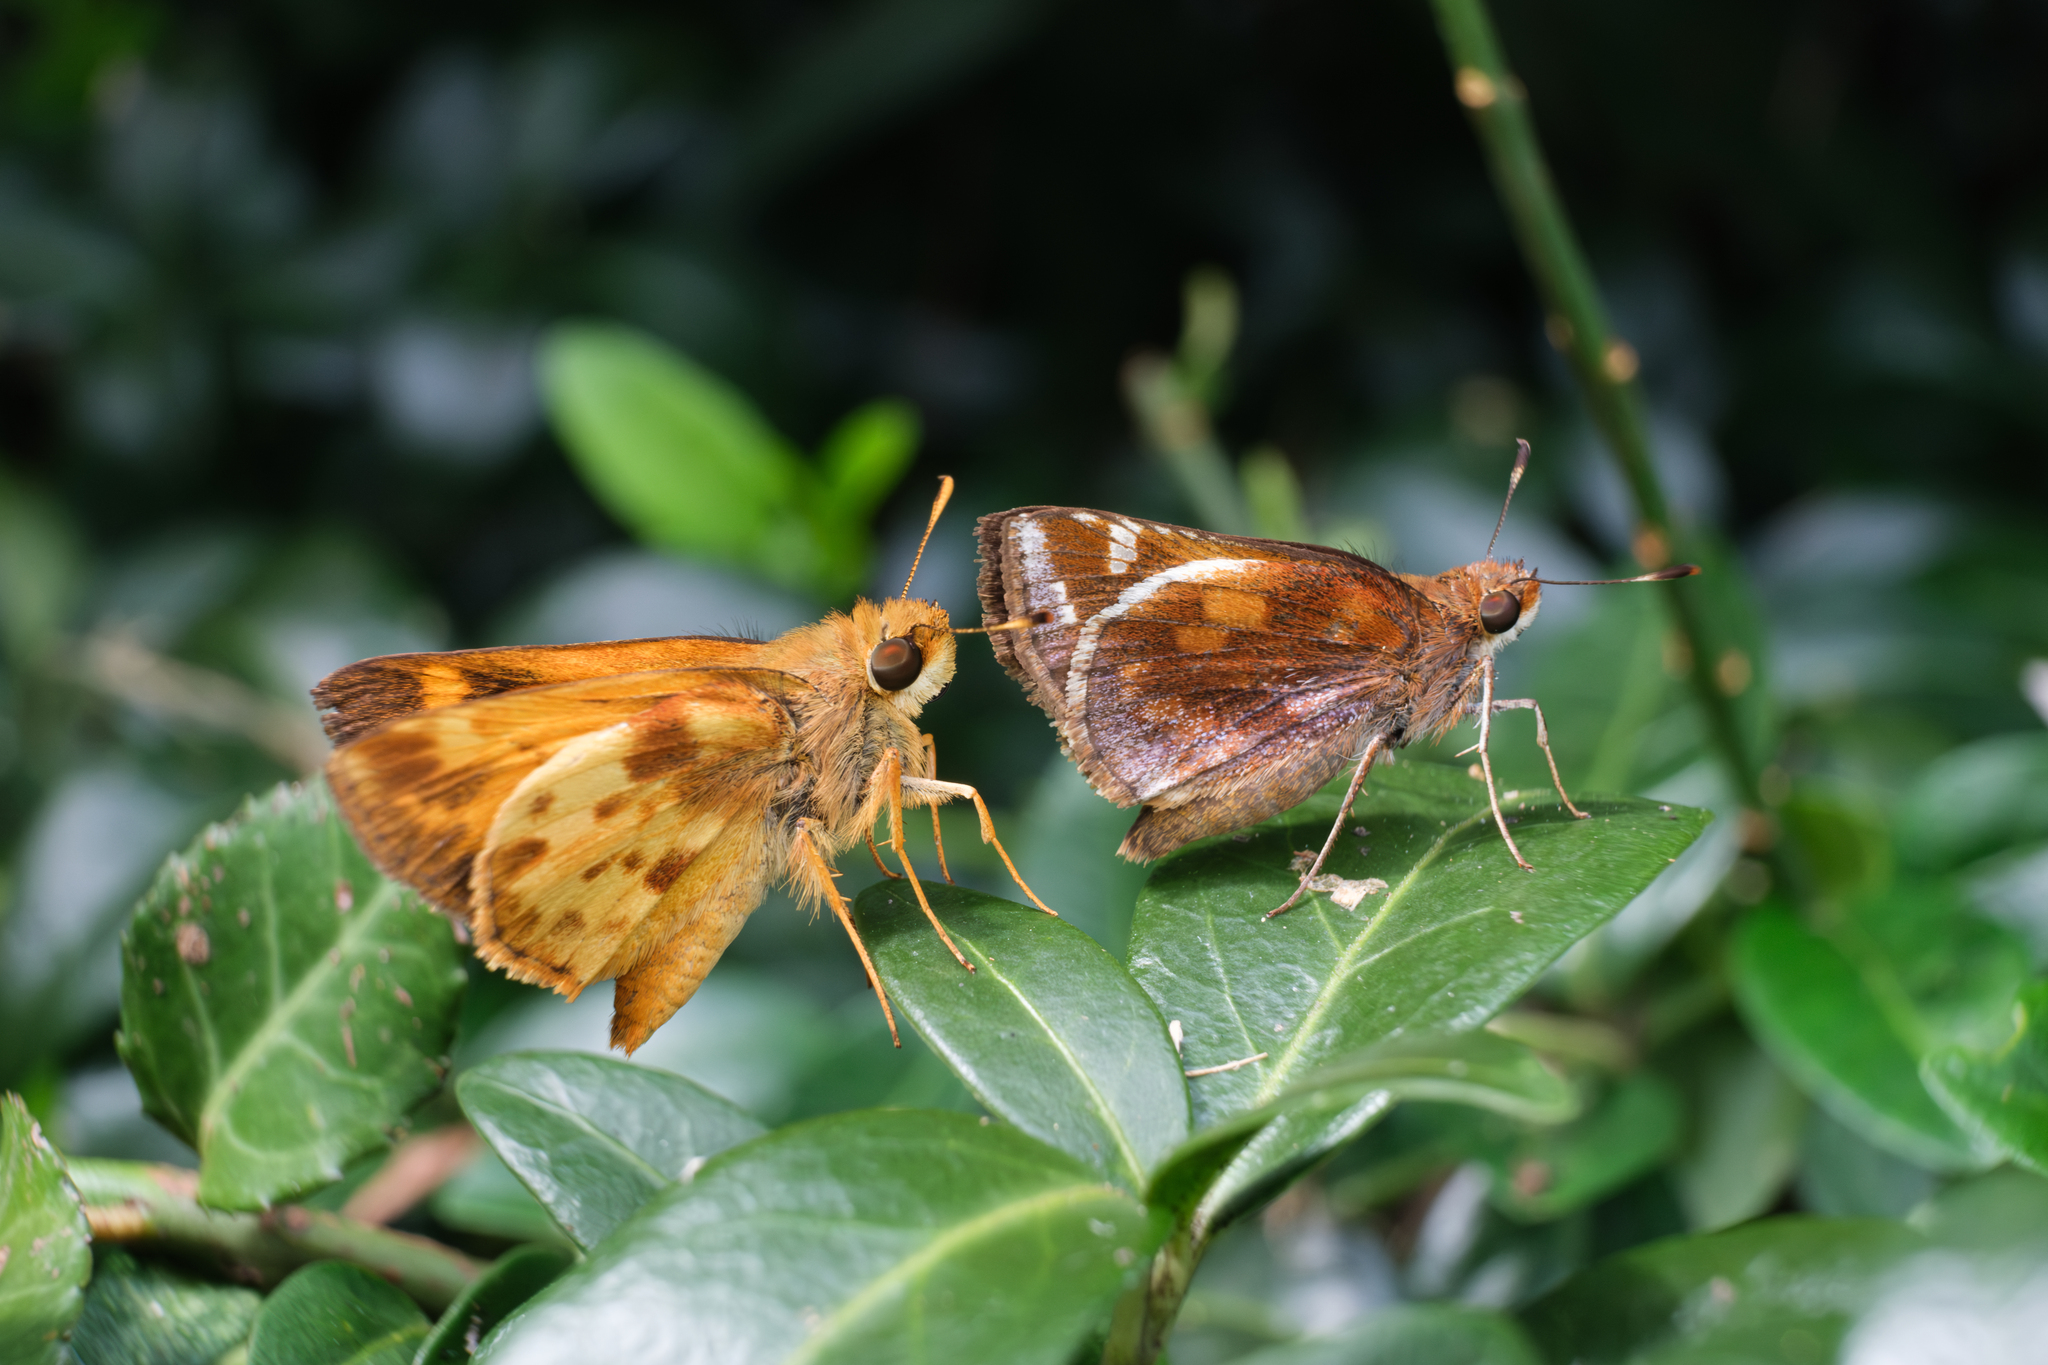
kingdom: Animalia
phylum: Arthropoda
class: Insecta
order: Lepidoptera
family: Hesperiidae
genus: Lon
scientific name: Lon zabulon
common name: Zabulon skipper
